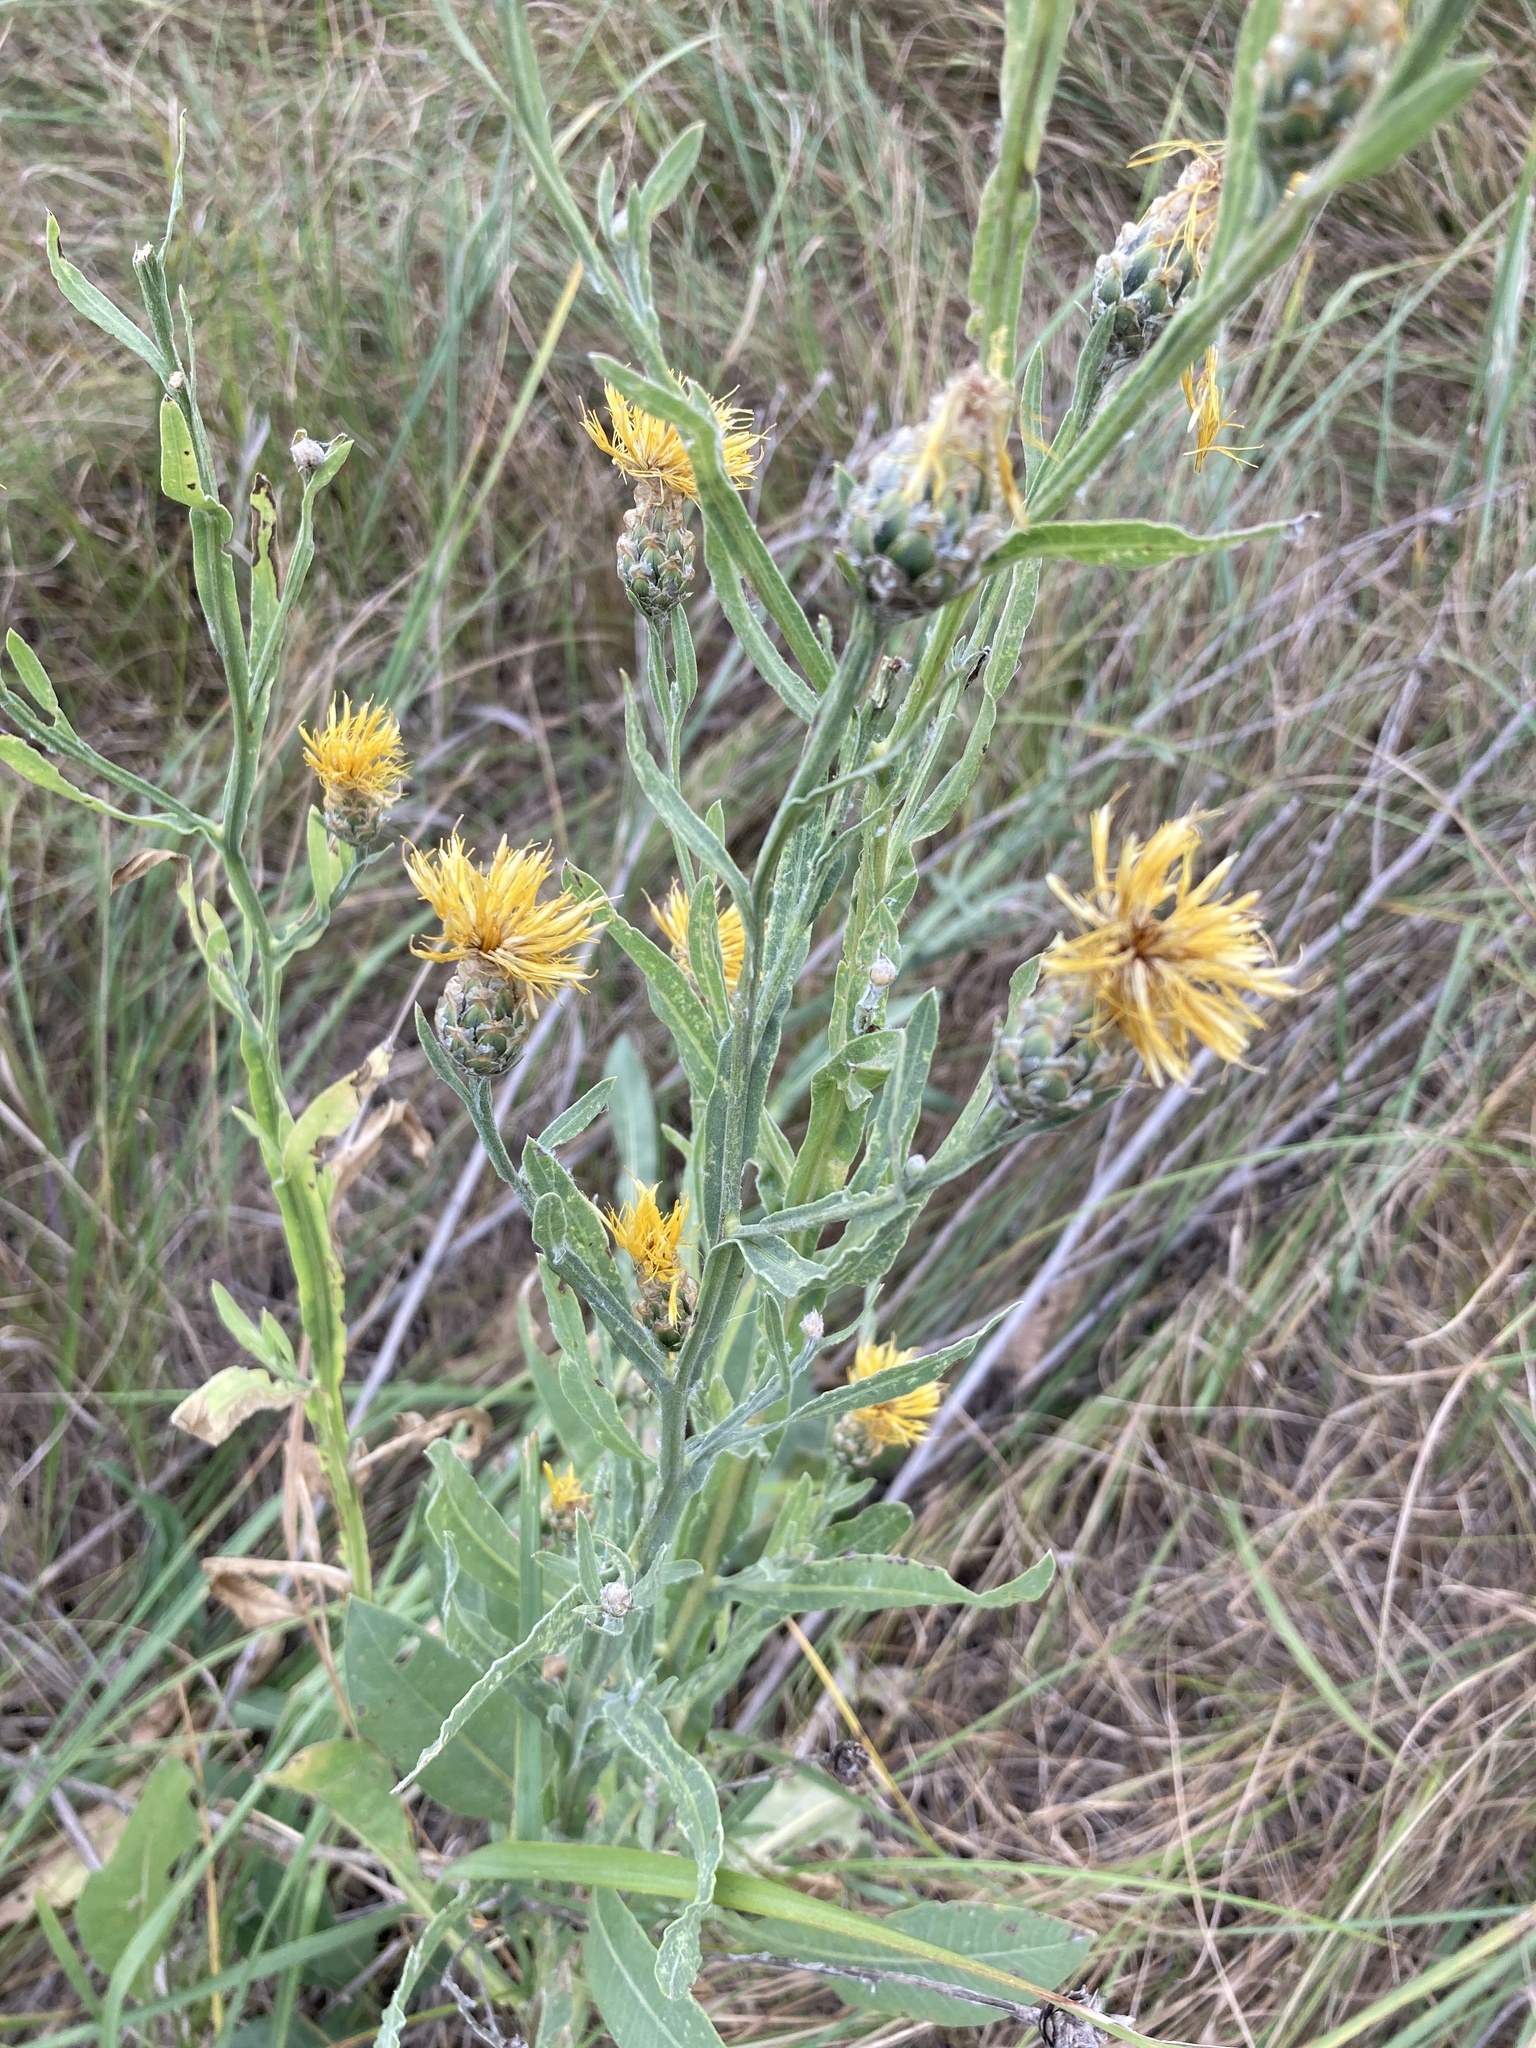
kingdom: Plantae
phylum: Tracheophyta
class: Magnoliopsida
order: Asterales
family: Asteraceae
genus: Centaurea
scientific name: Centaurea glastifolia
